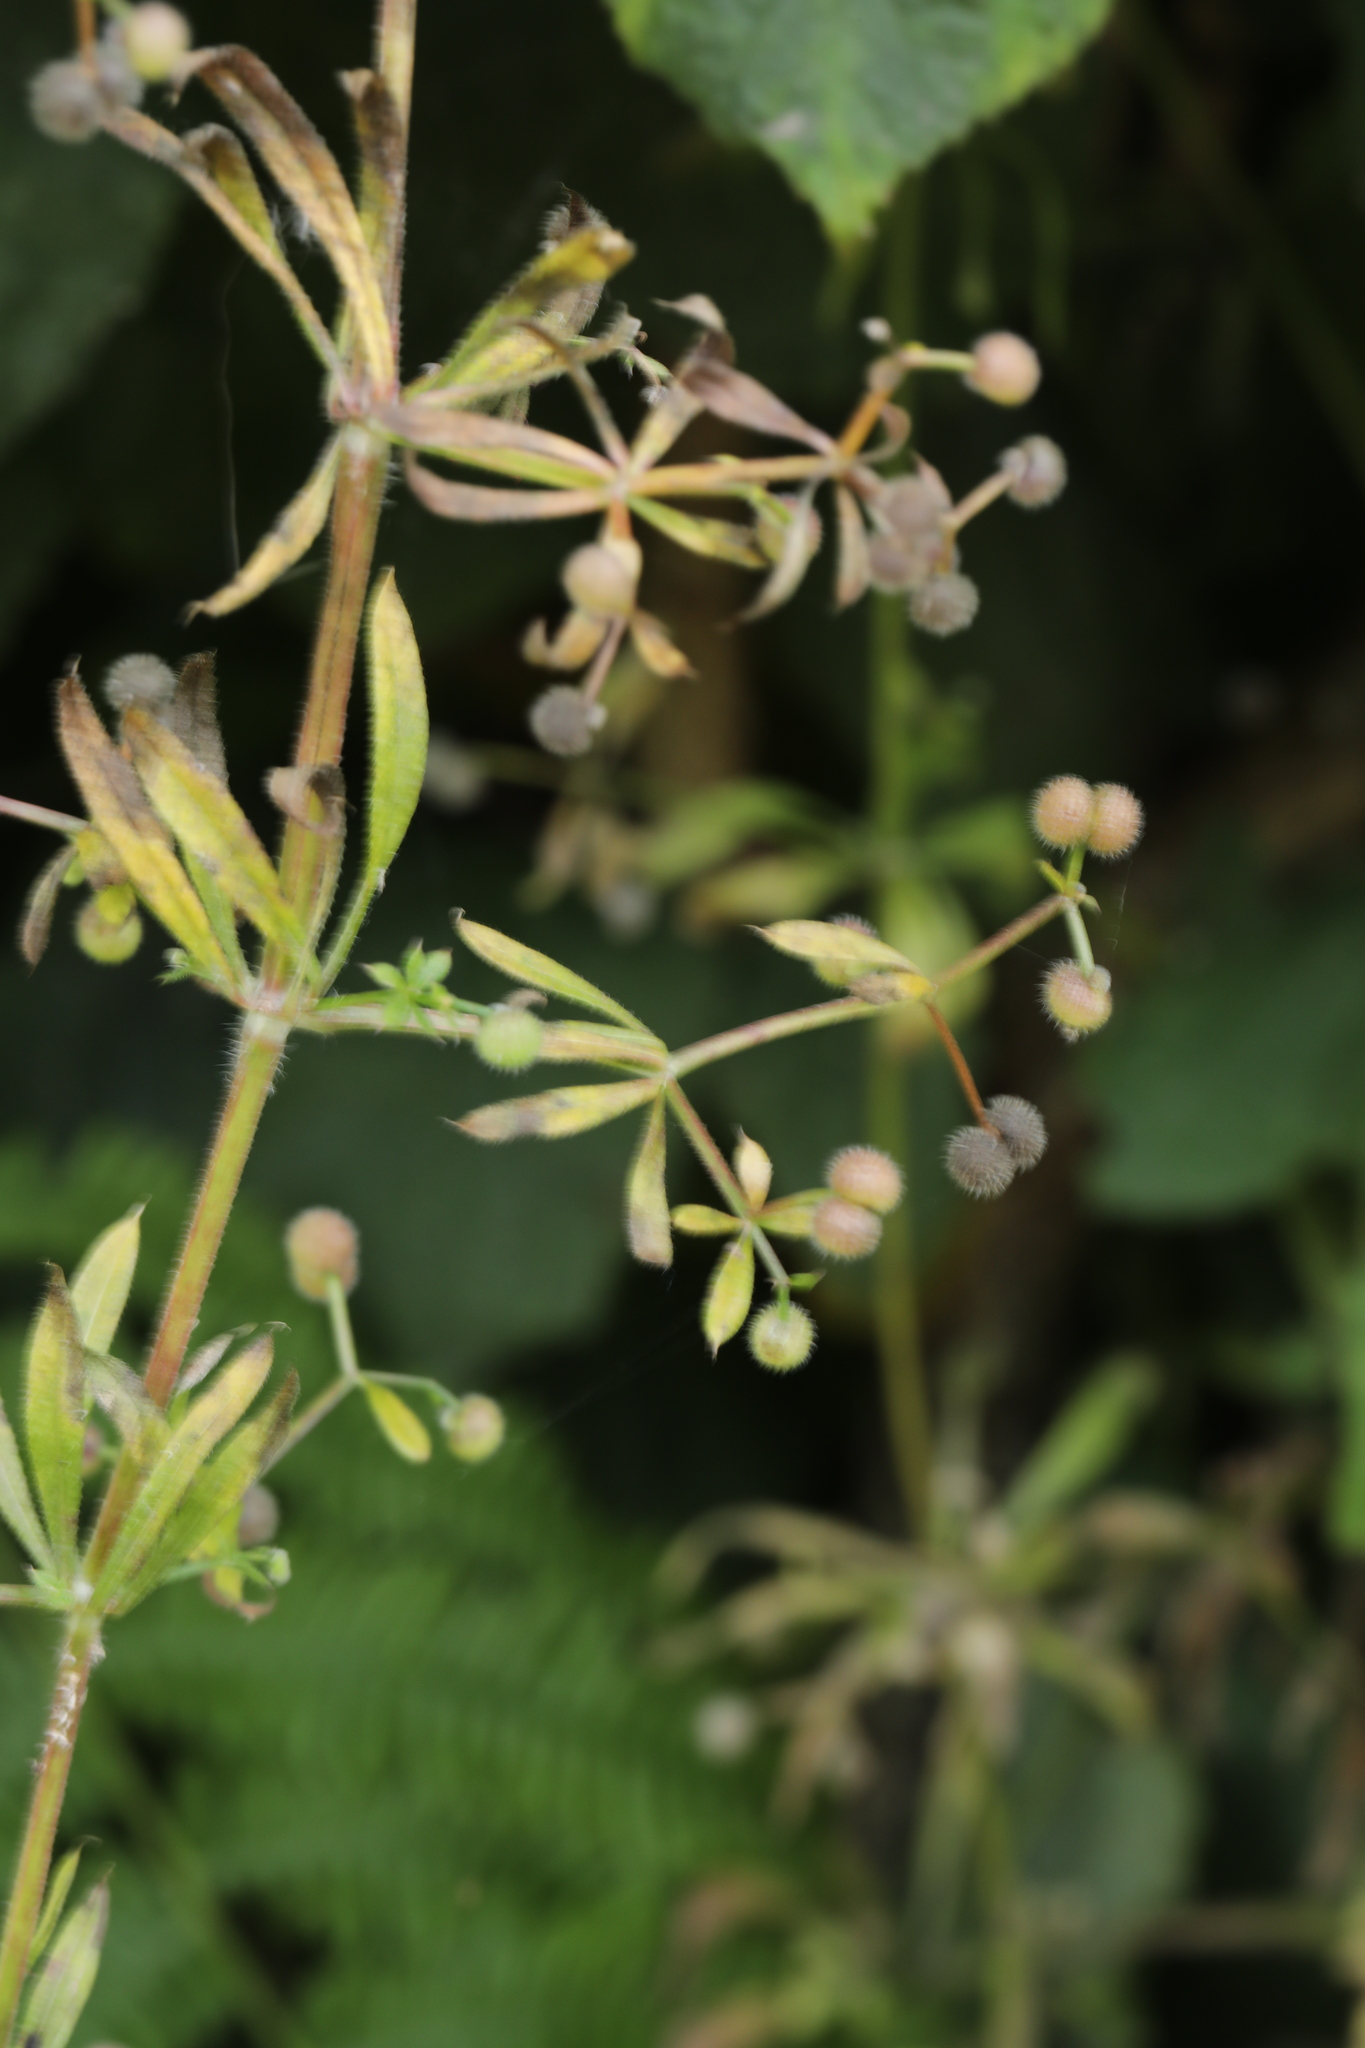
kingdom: Plantae
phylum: Tracheophyta
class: Magnoliopsida
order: Gentianales
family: Rubiaceae
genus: Galium
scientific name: Galium aparine
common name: Cleavers
